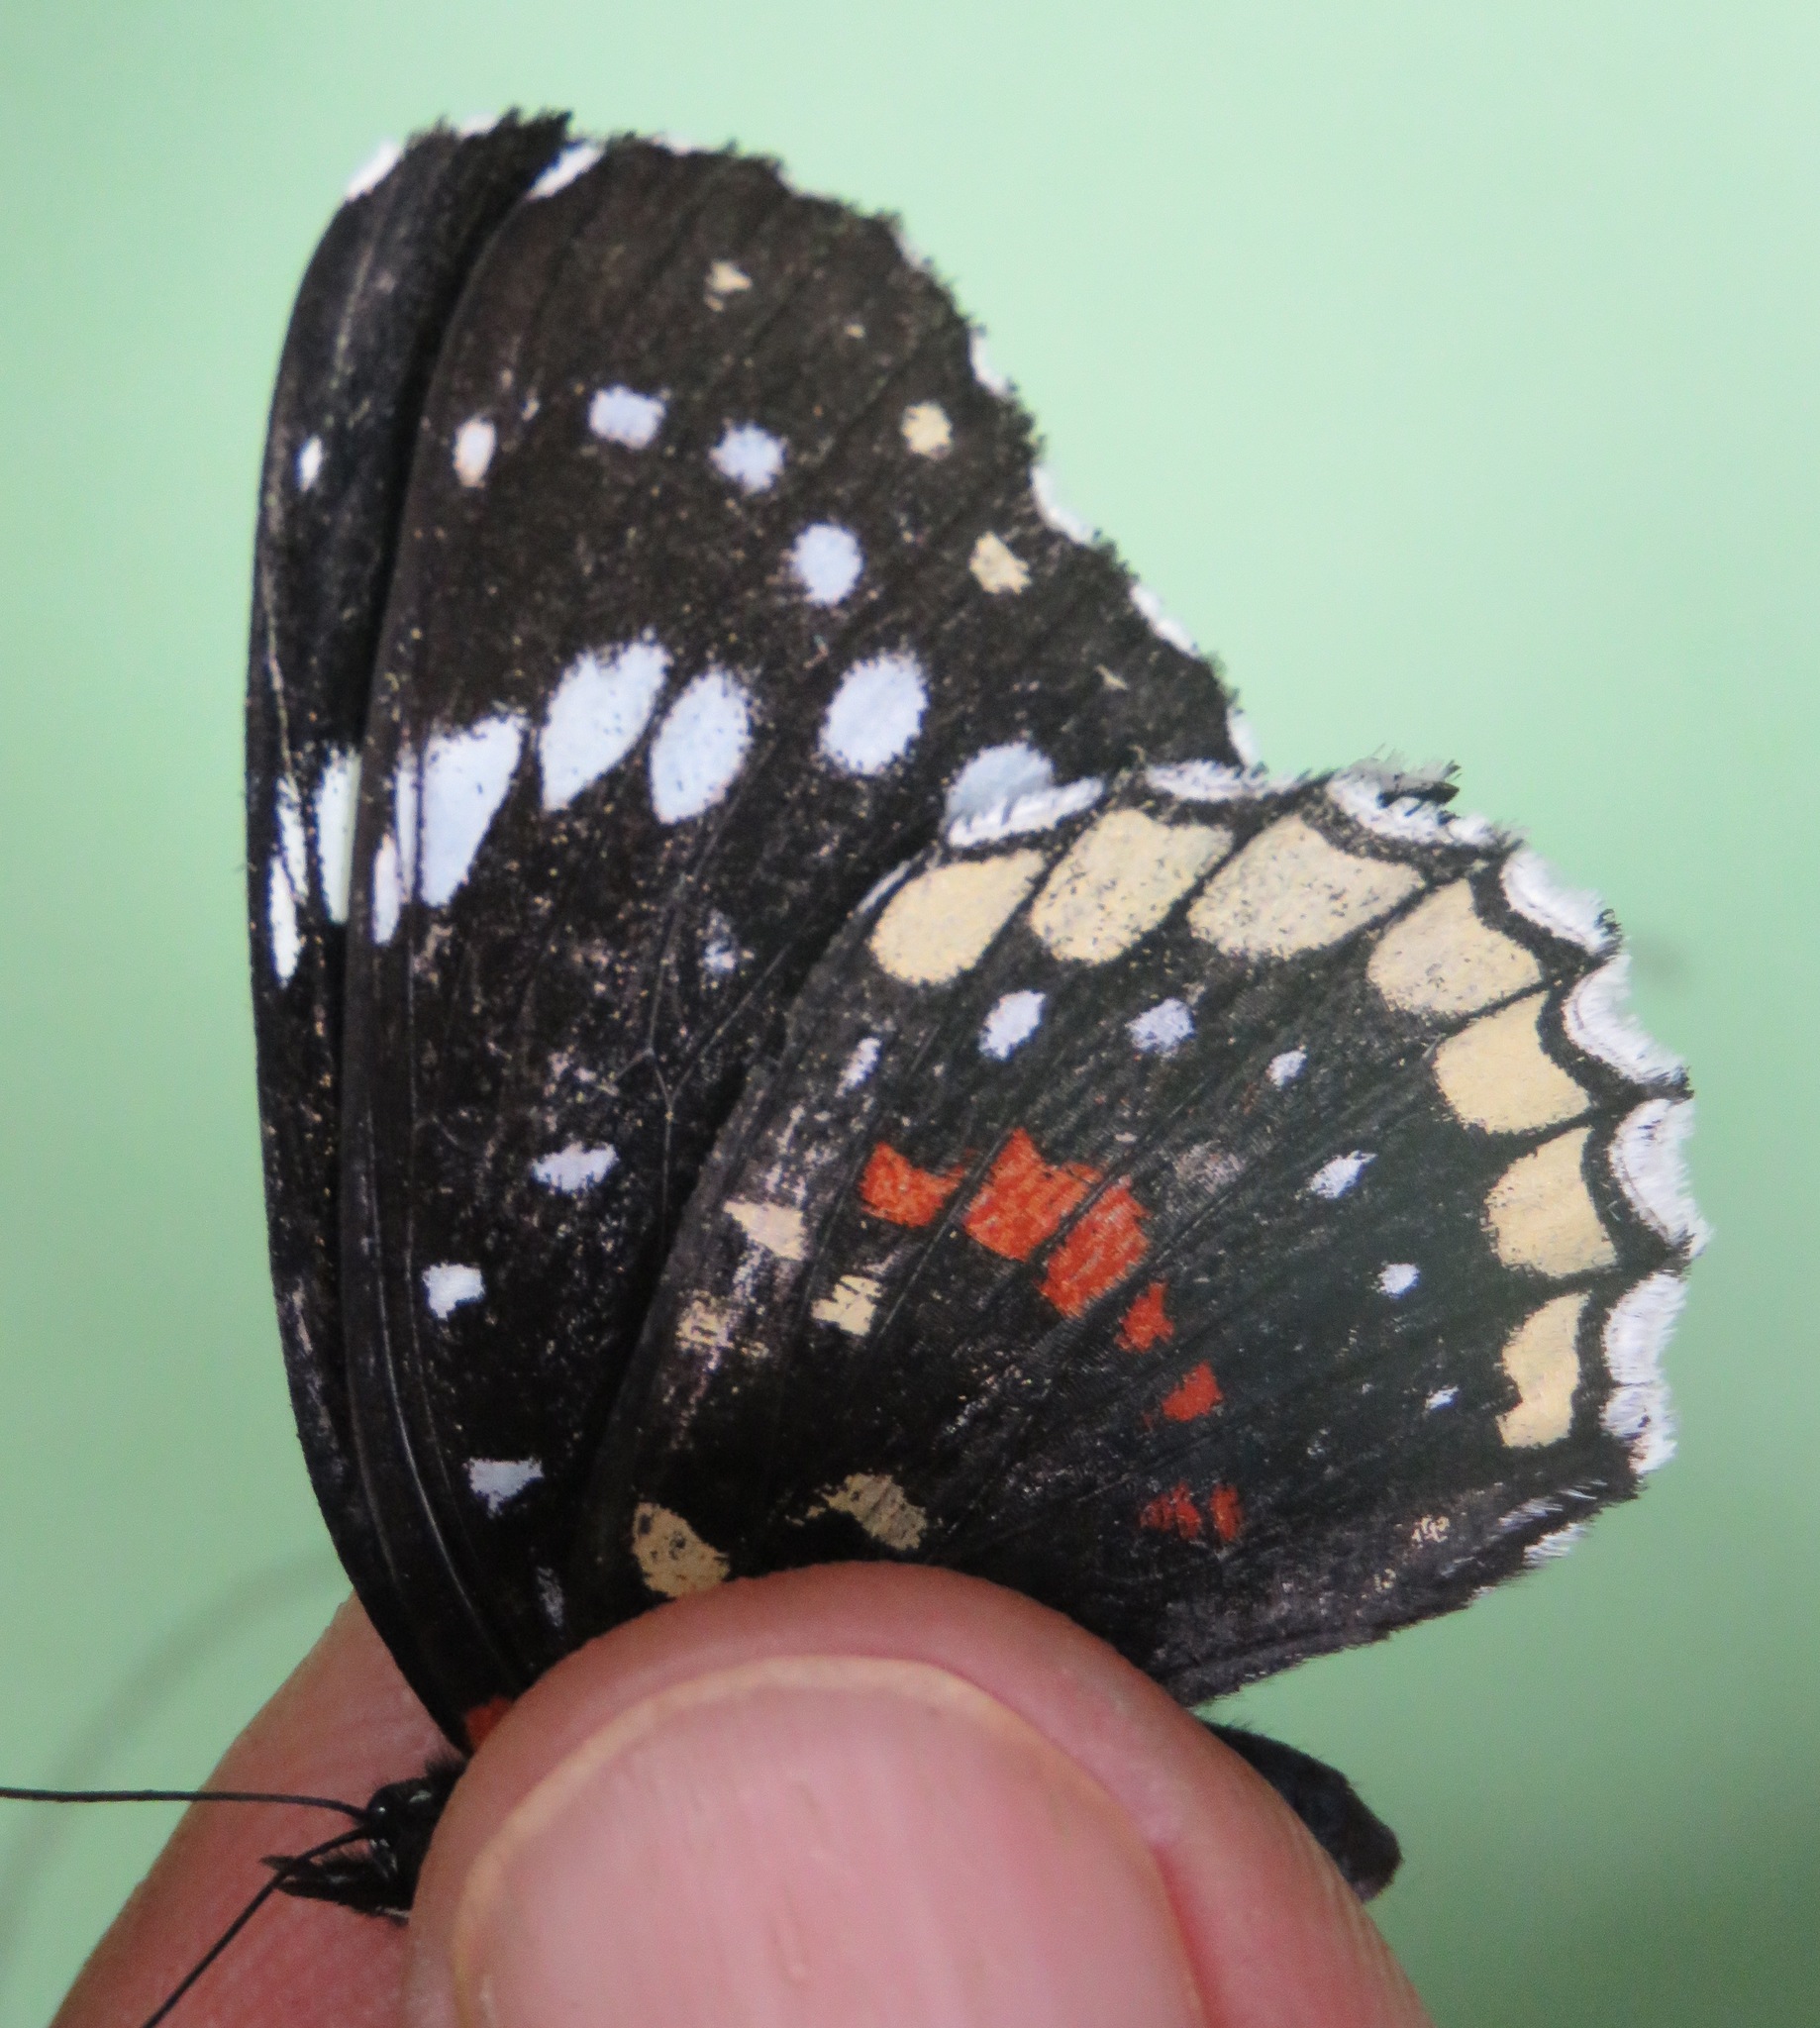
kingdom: Animalia
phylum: Arthropoda
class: Insecta
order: Lepidoptera
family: Nymphalidae
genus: Chlosyne
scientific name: Chlosyne hippodrome
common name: Simple patch
